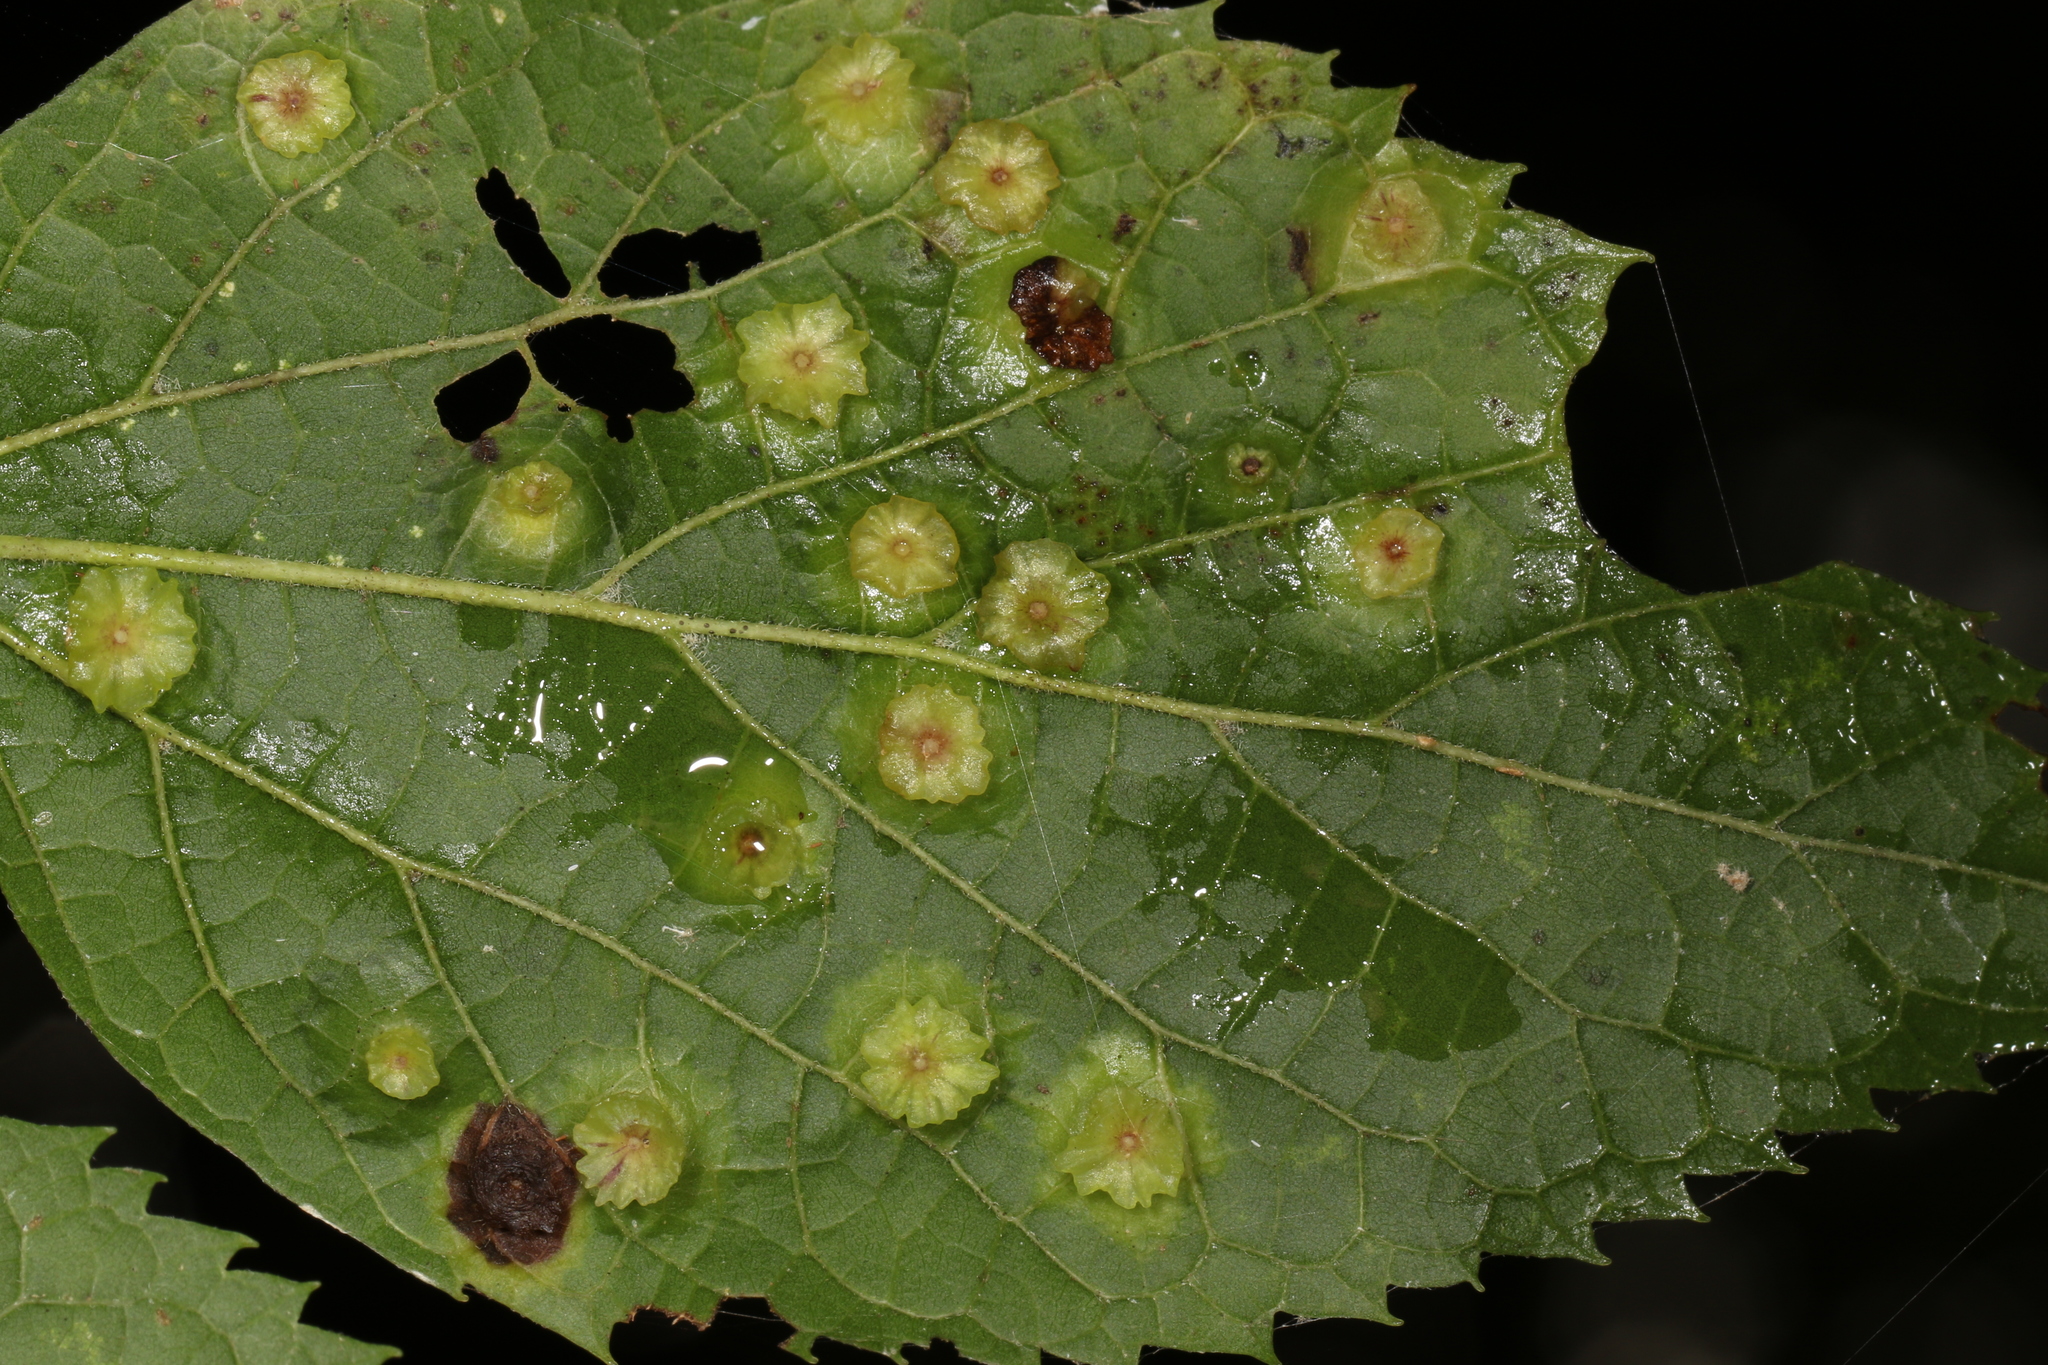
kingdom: Animalia
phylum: Arthropoda
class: Insecta
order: Hemiptera
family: Aphalaridae
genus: Pachypsylla
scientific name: Pachypsylla celtidisasterisca
